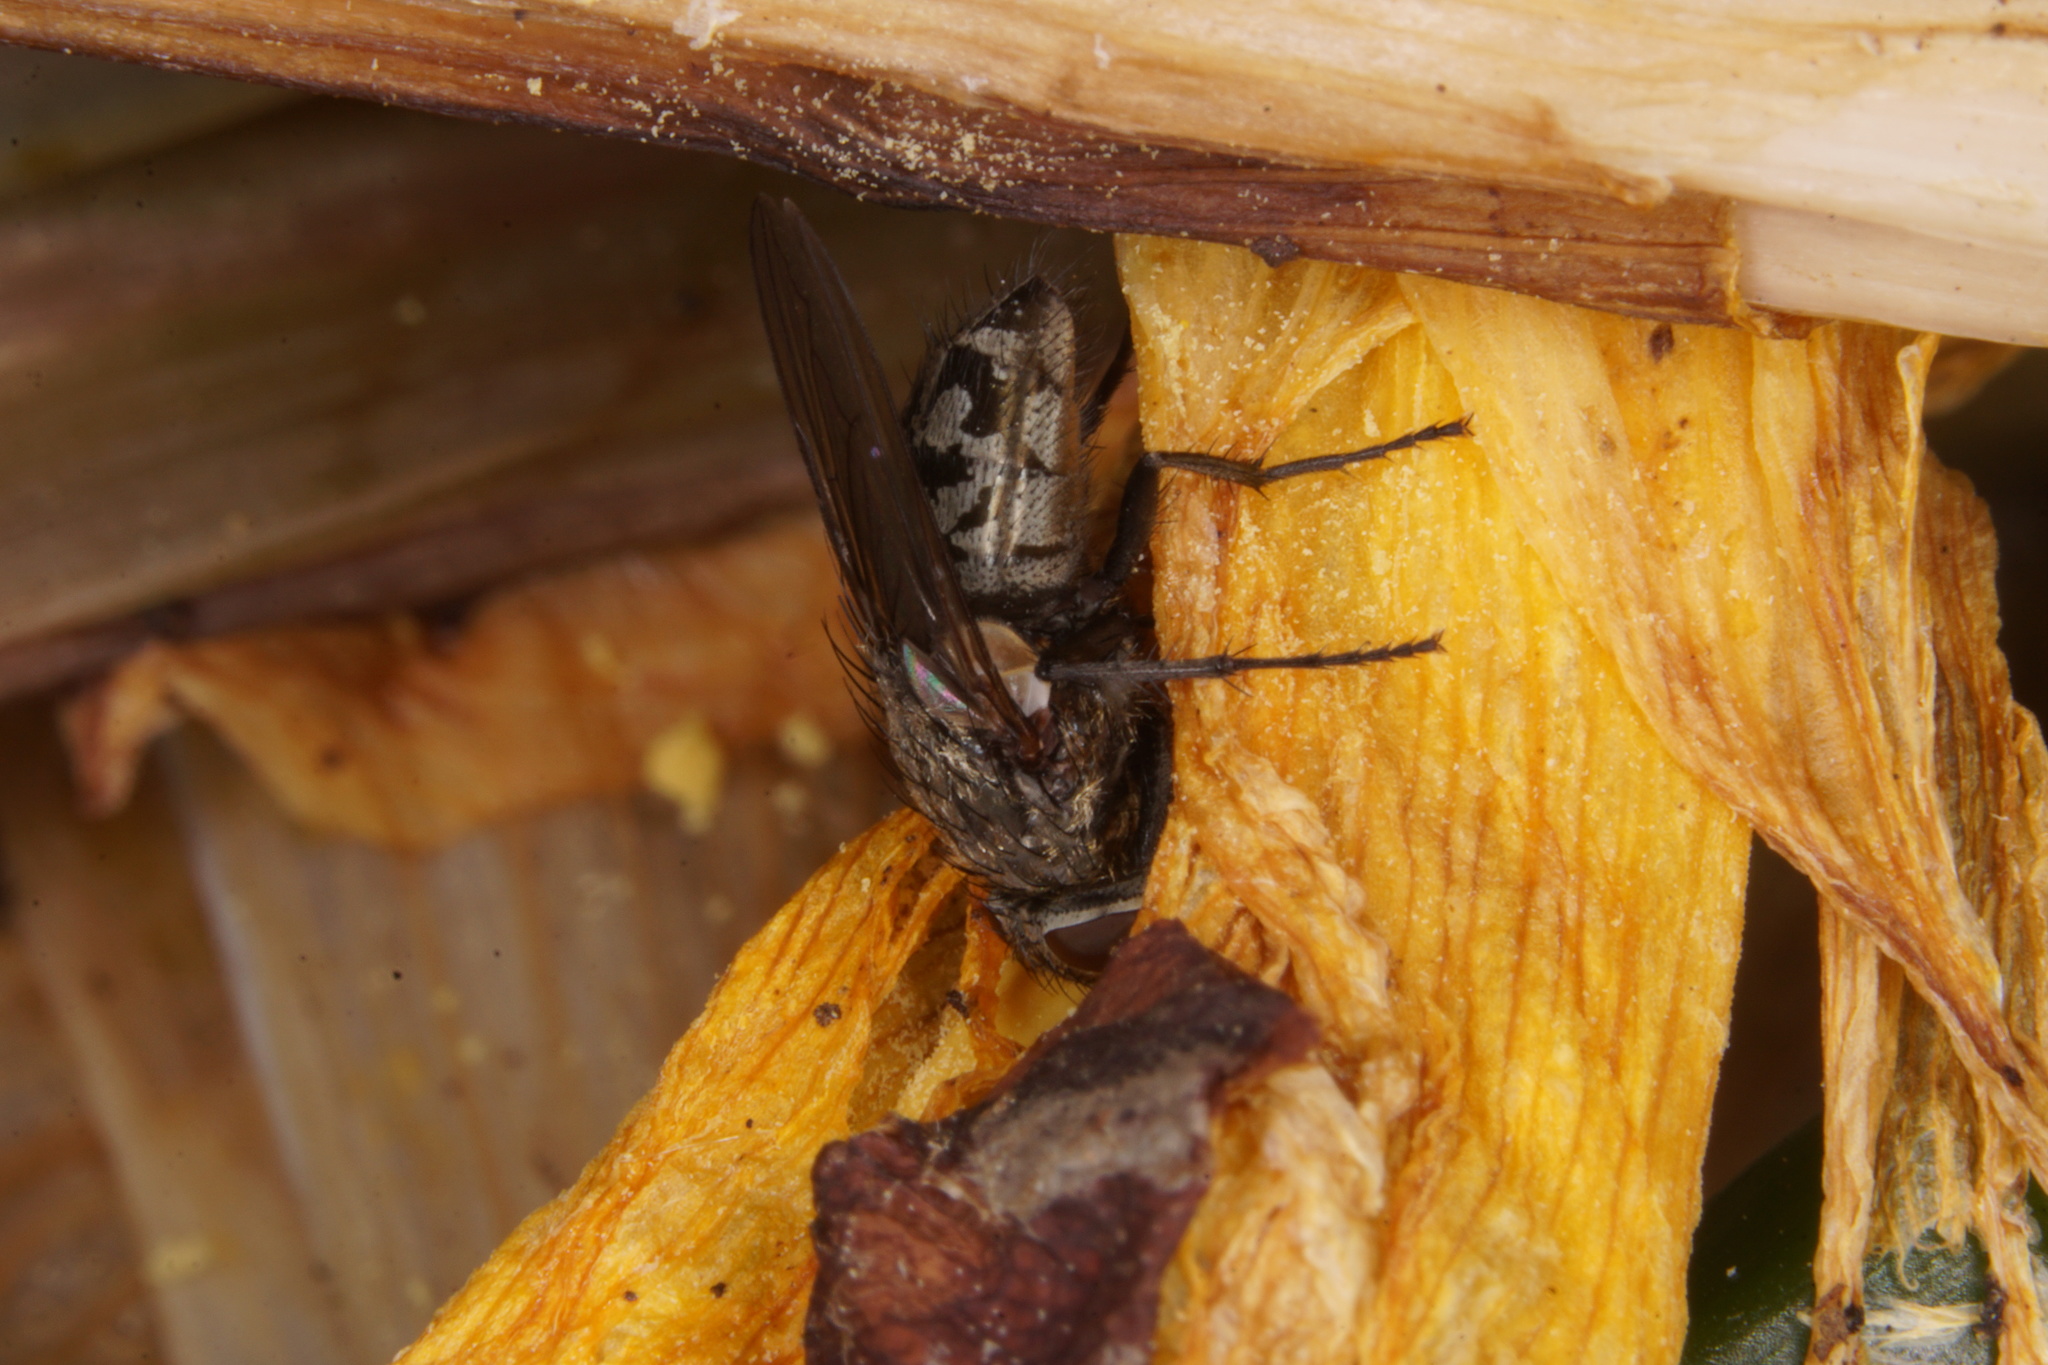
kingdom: Animalia
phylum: Arthropoda
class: Insecta
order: Diptera
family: Polleniidae
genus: Pollenia
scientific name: Pollenia
